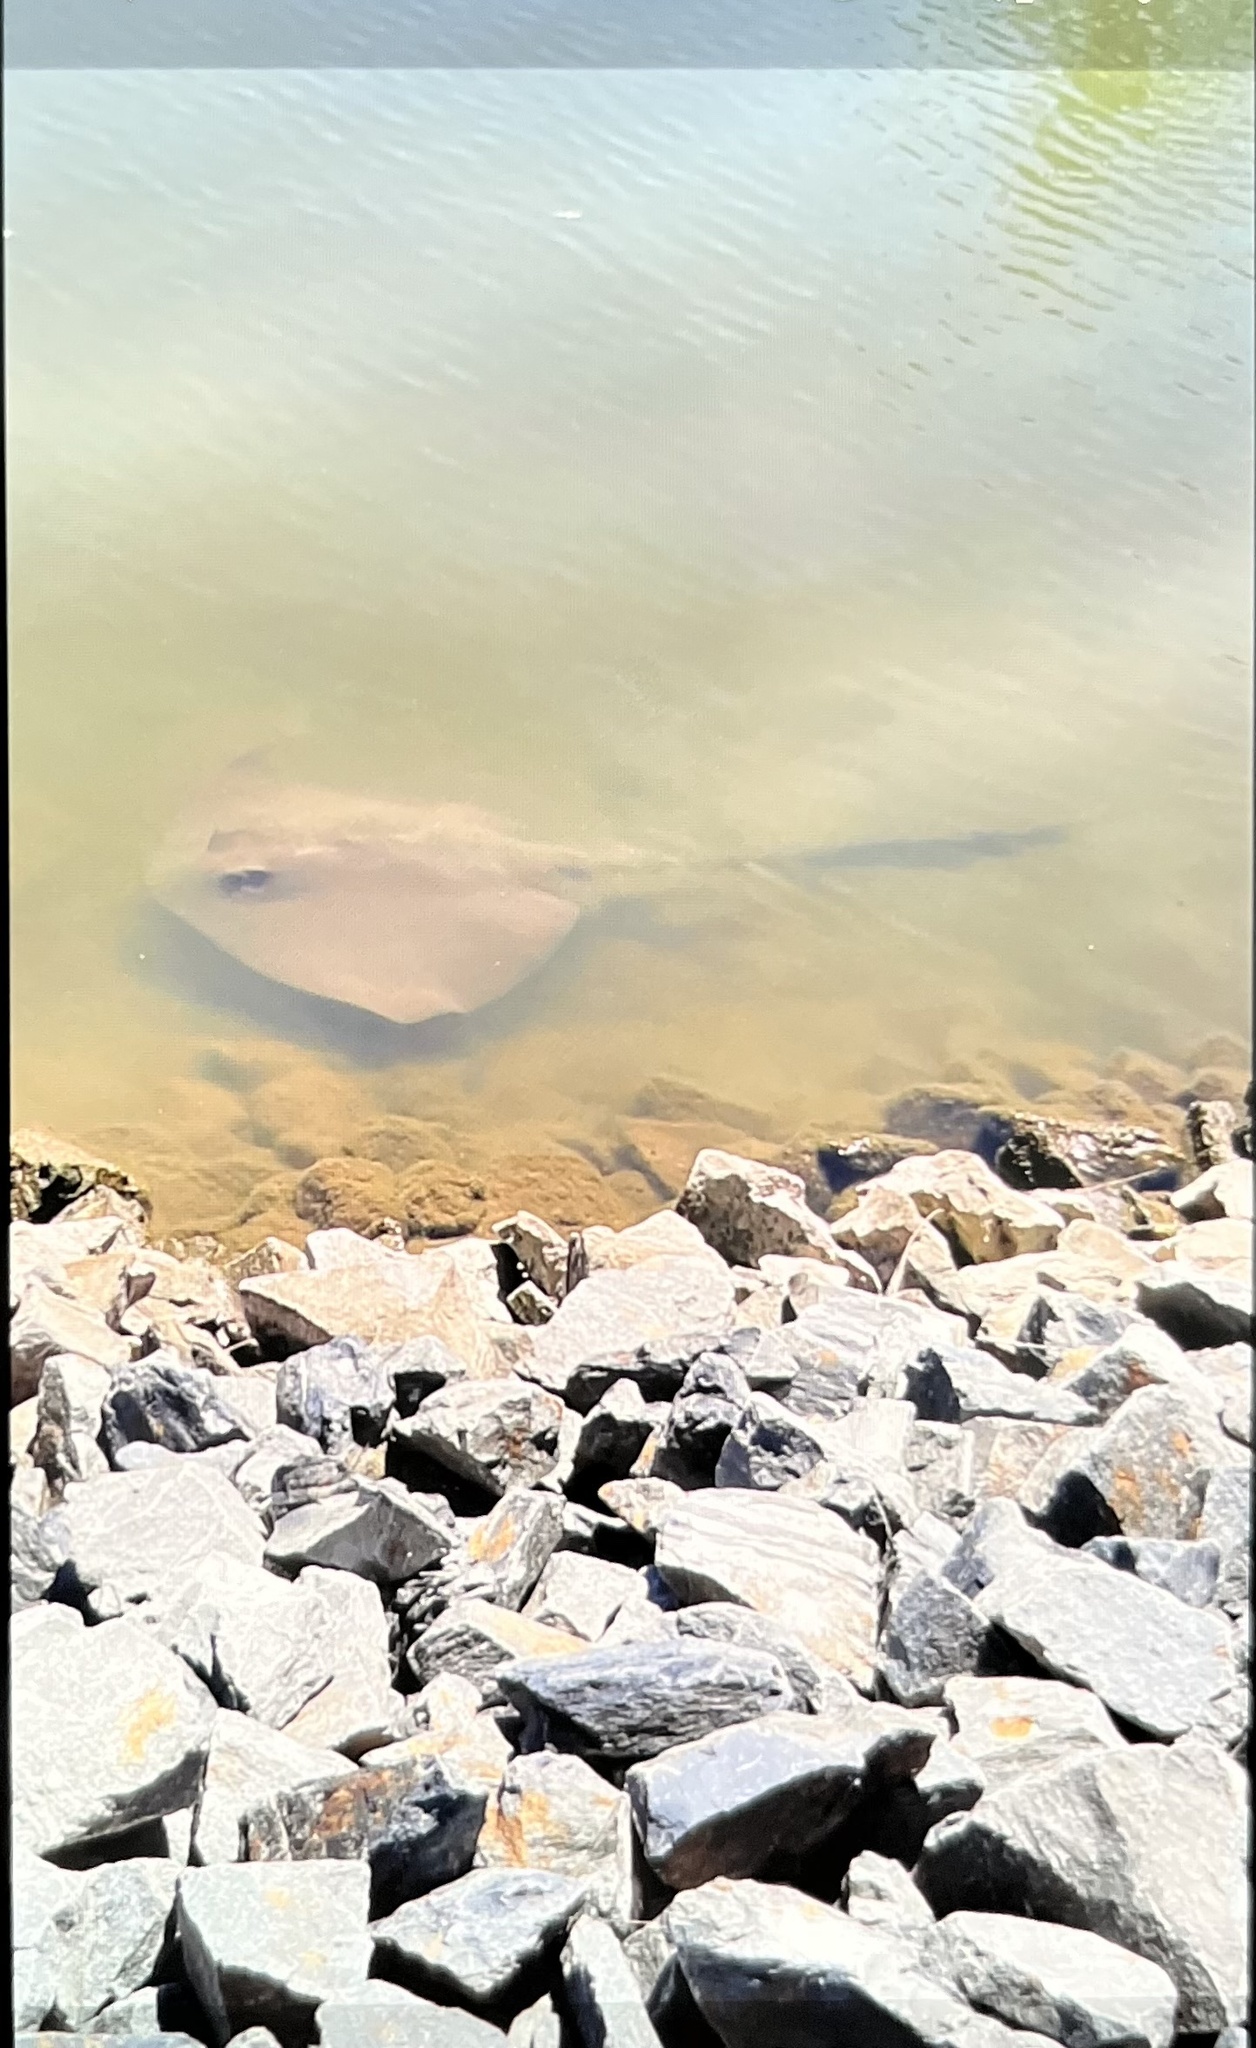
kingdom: Animalia
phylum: Chordata
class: Elasmobranchii
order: Myliobatiformes
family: Dasyatidae
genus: Pastinachus
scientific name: Pastinachus ater
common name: Banana-tail ray
